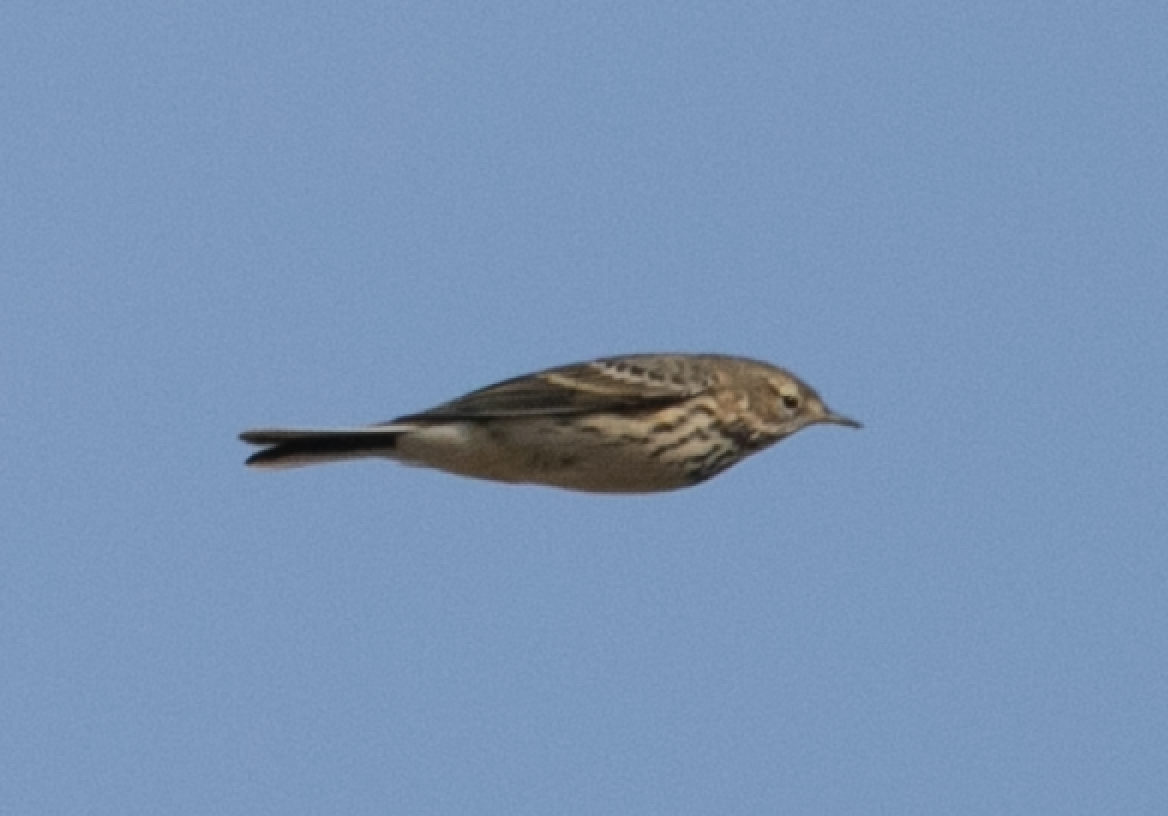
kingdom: Animalia
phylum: Chordata
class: Aves
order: Passeriformes
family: Motacillidae
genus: Anthus
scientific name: Anthus pratensis
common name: Meadow pipit
